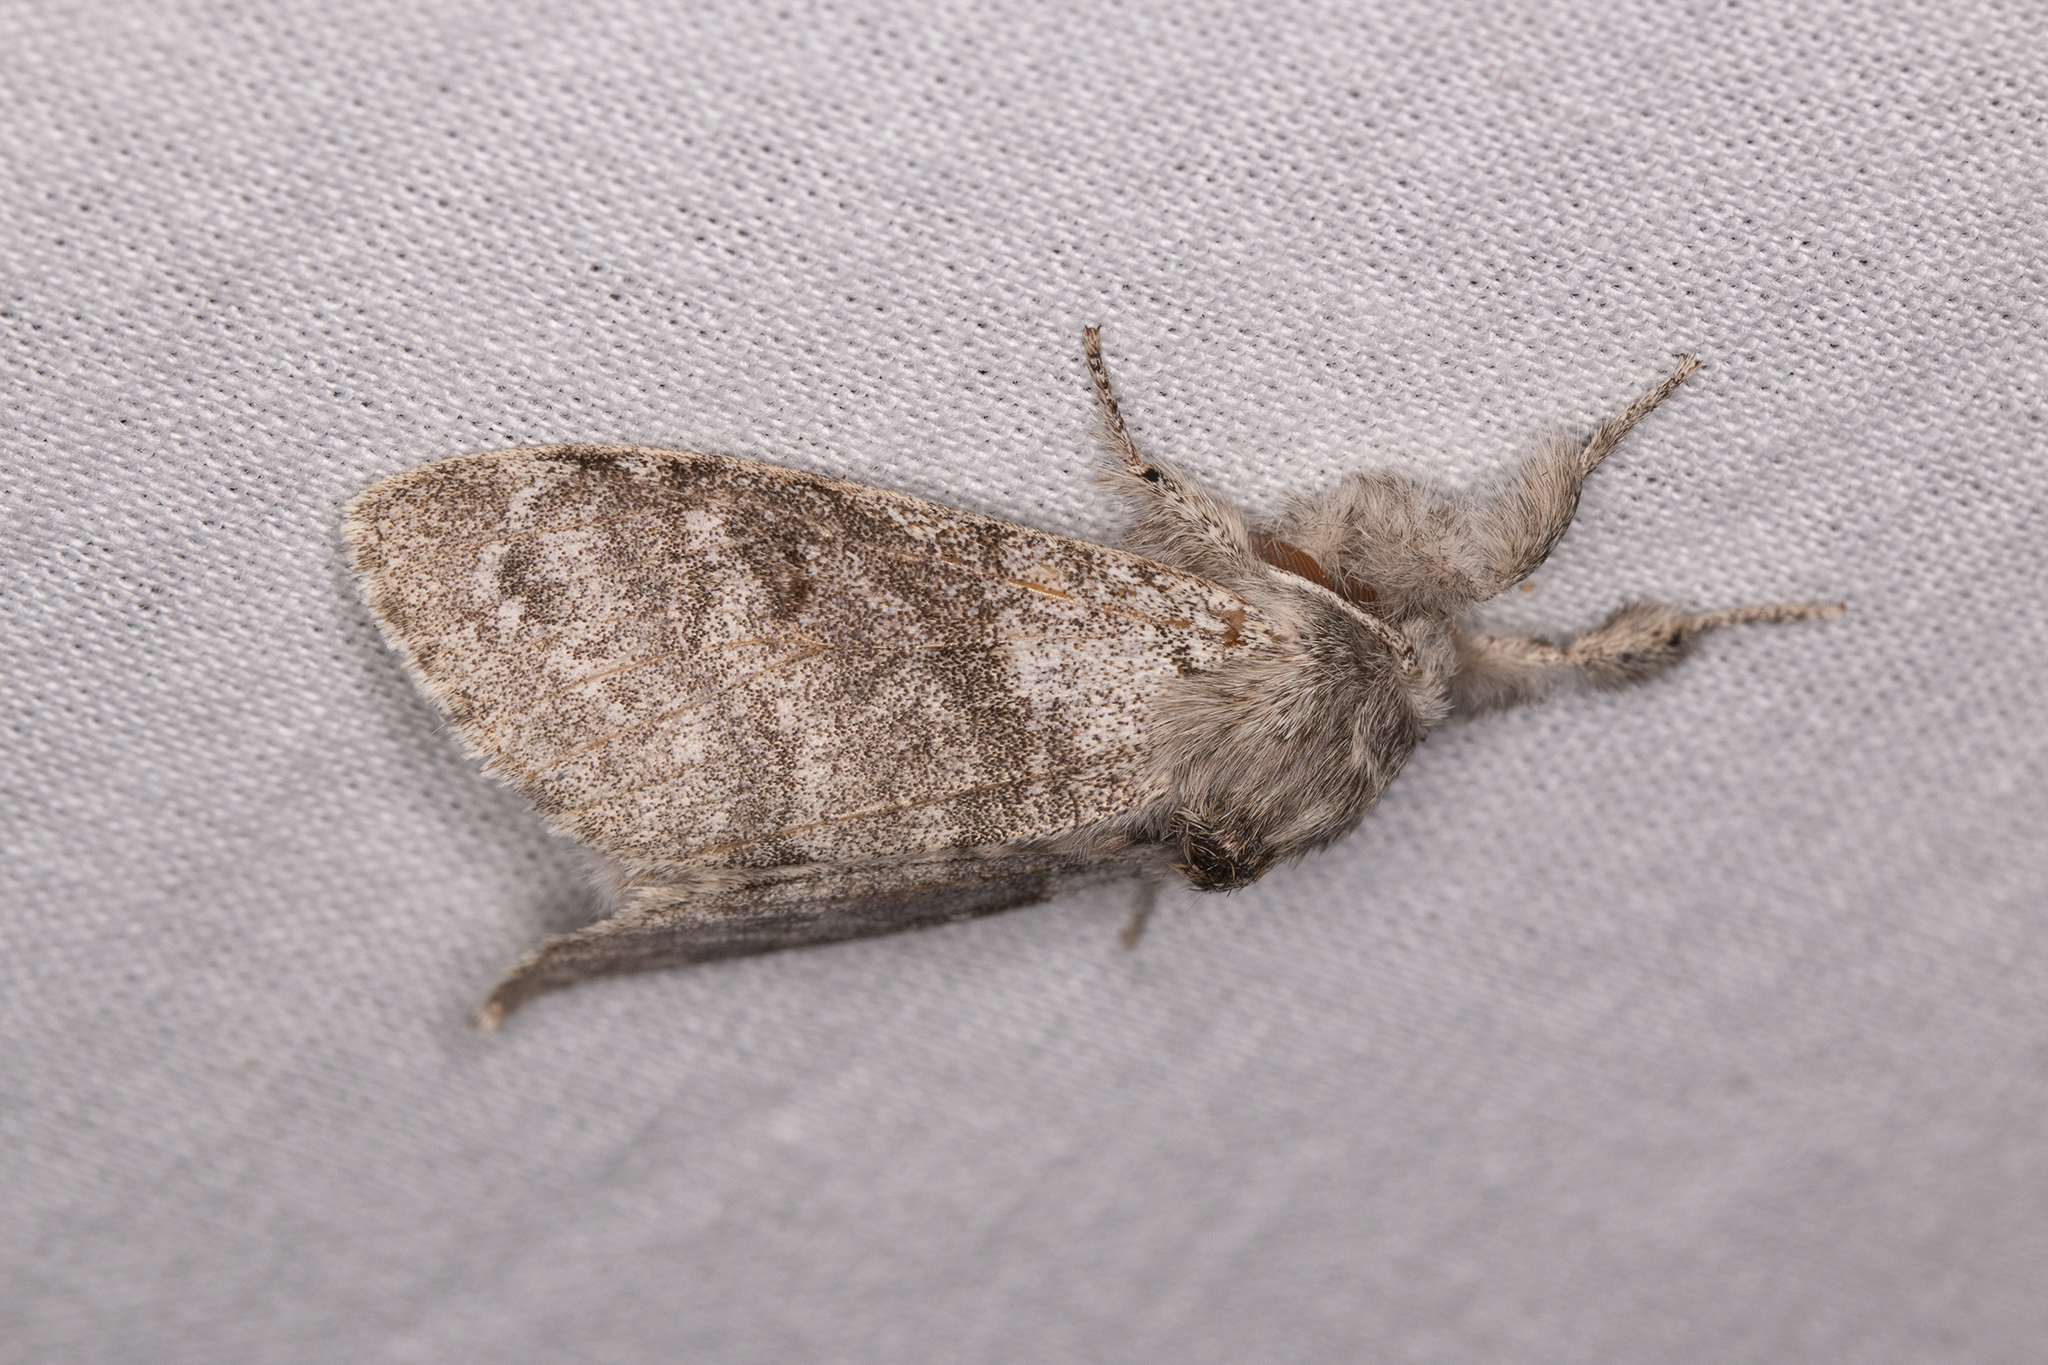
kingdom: Animalia
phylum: Arthropoda
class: Insecta
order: Lepidoptera
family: Erebidae
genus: Calliteara
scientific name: Calliteara pudibunda
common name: Pale tussock
